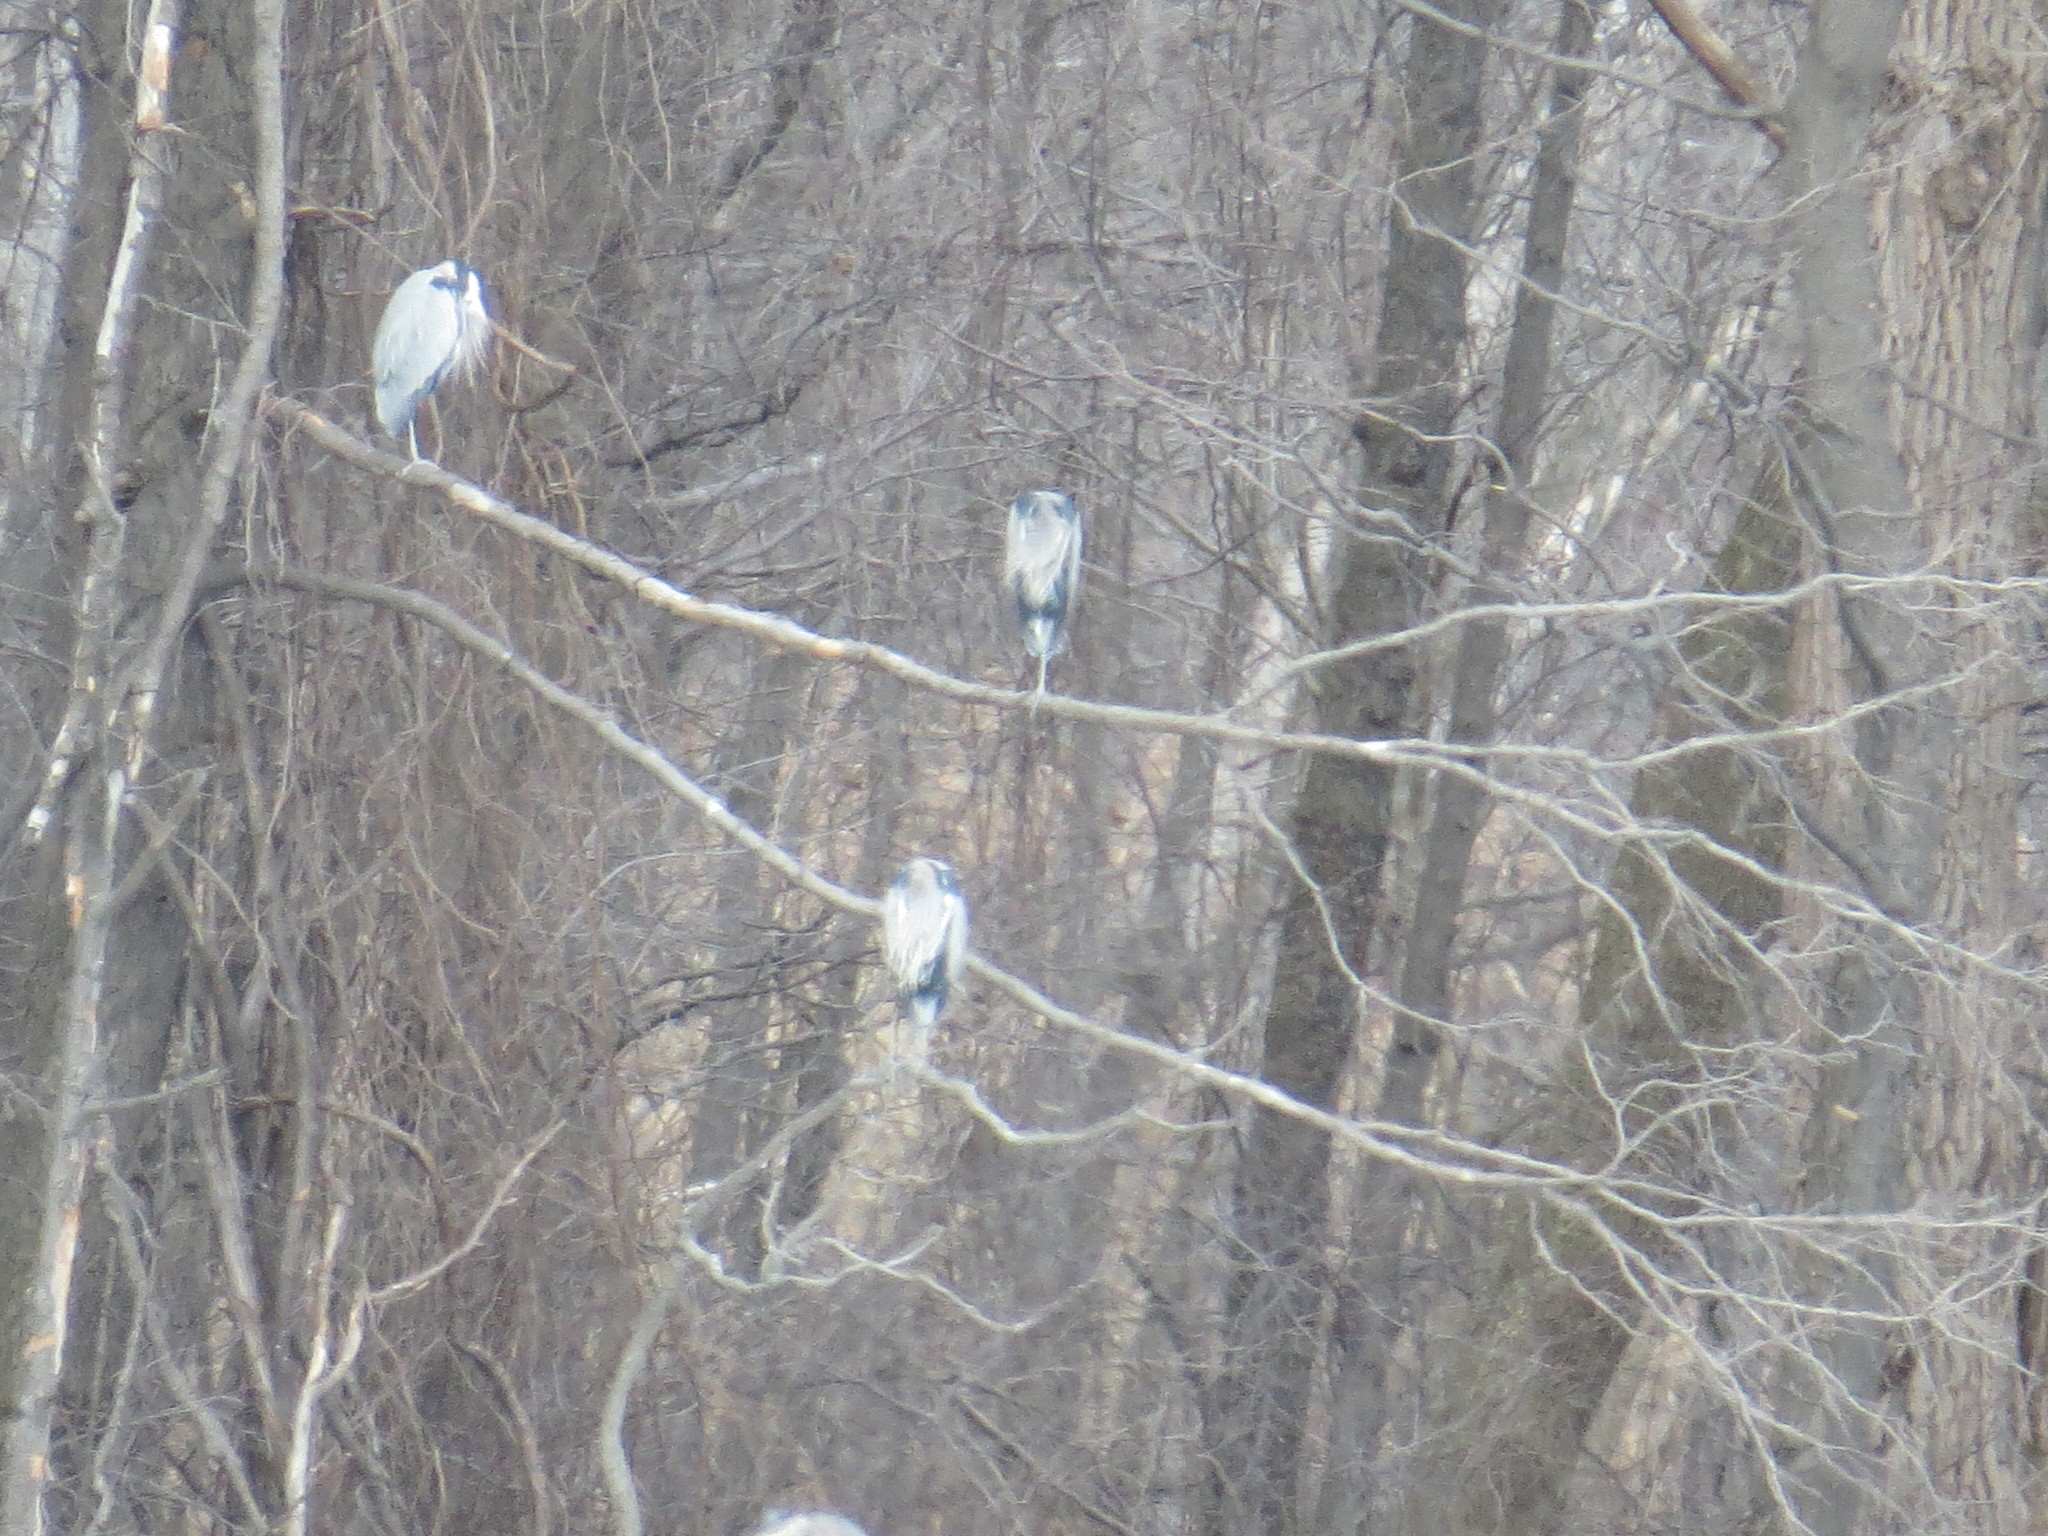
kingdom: Animalia
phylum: Chordata
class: Aves
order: Pelecaniformes
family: Ardeidae
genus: Ardea
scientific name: Ardea herodias
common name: Great blue heron
